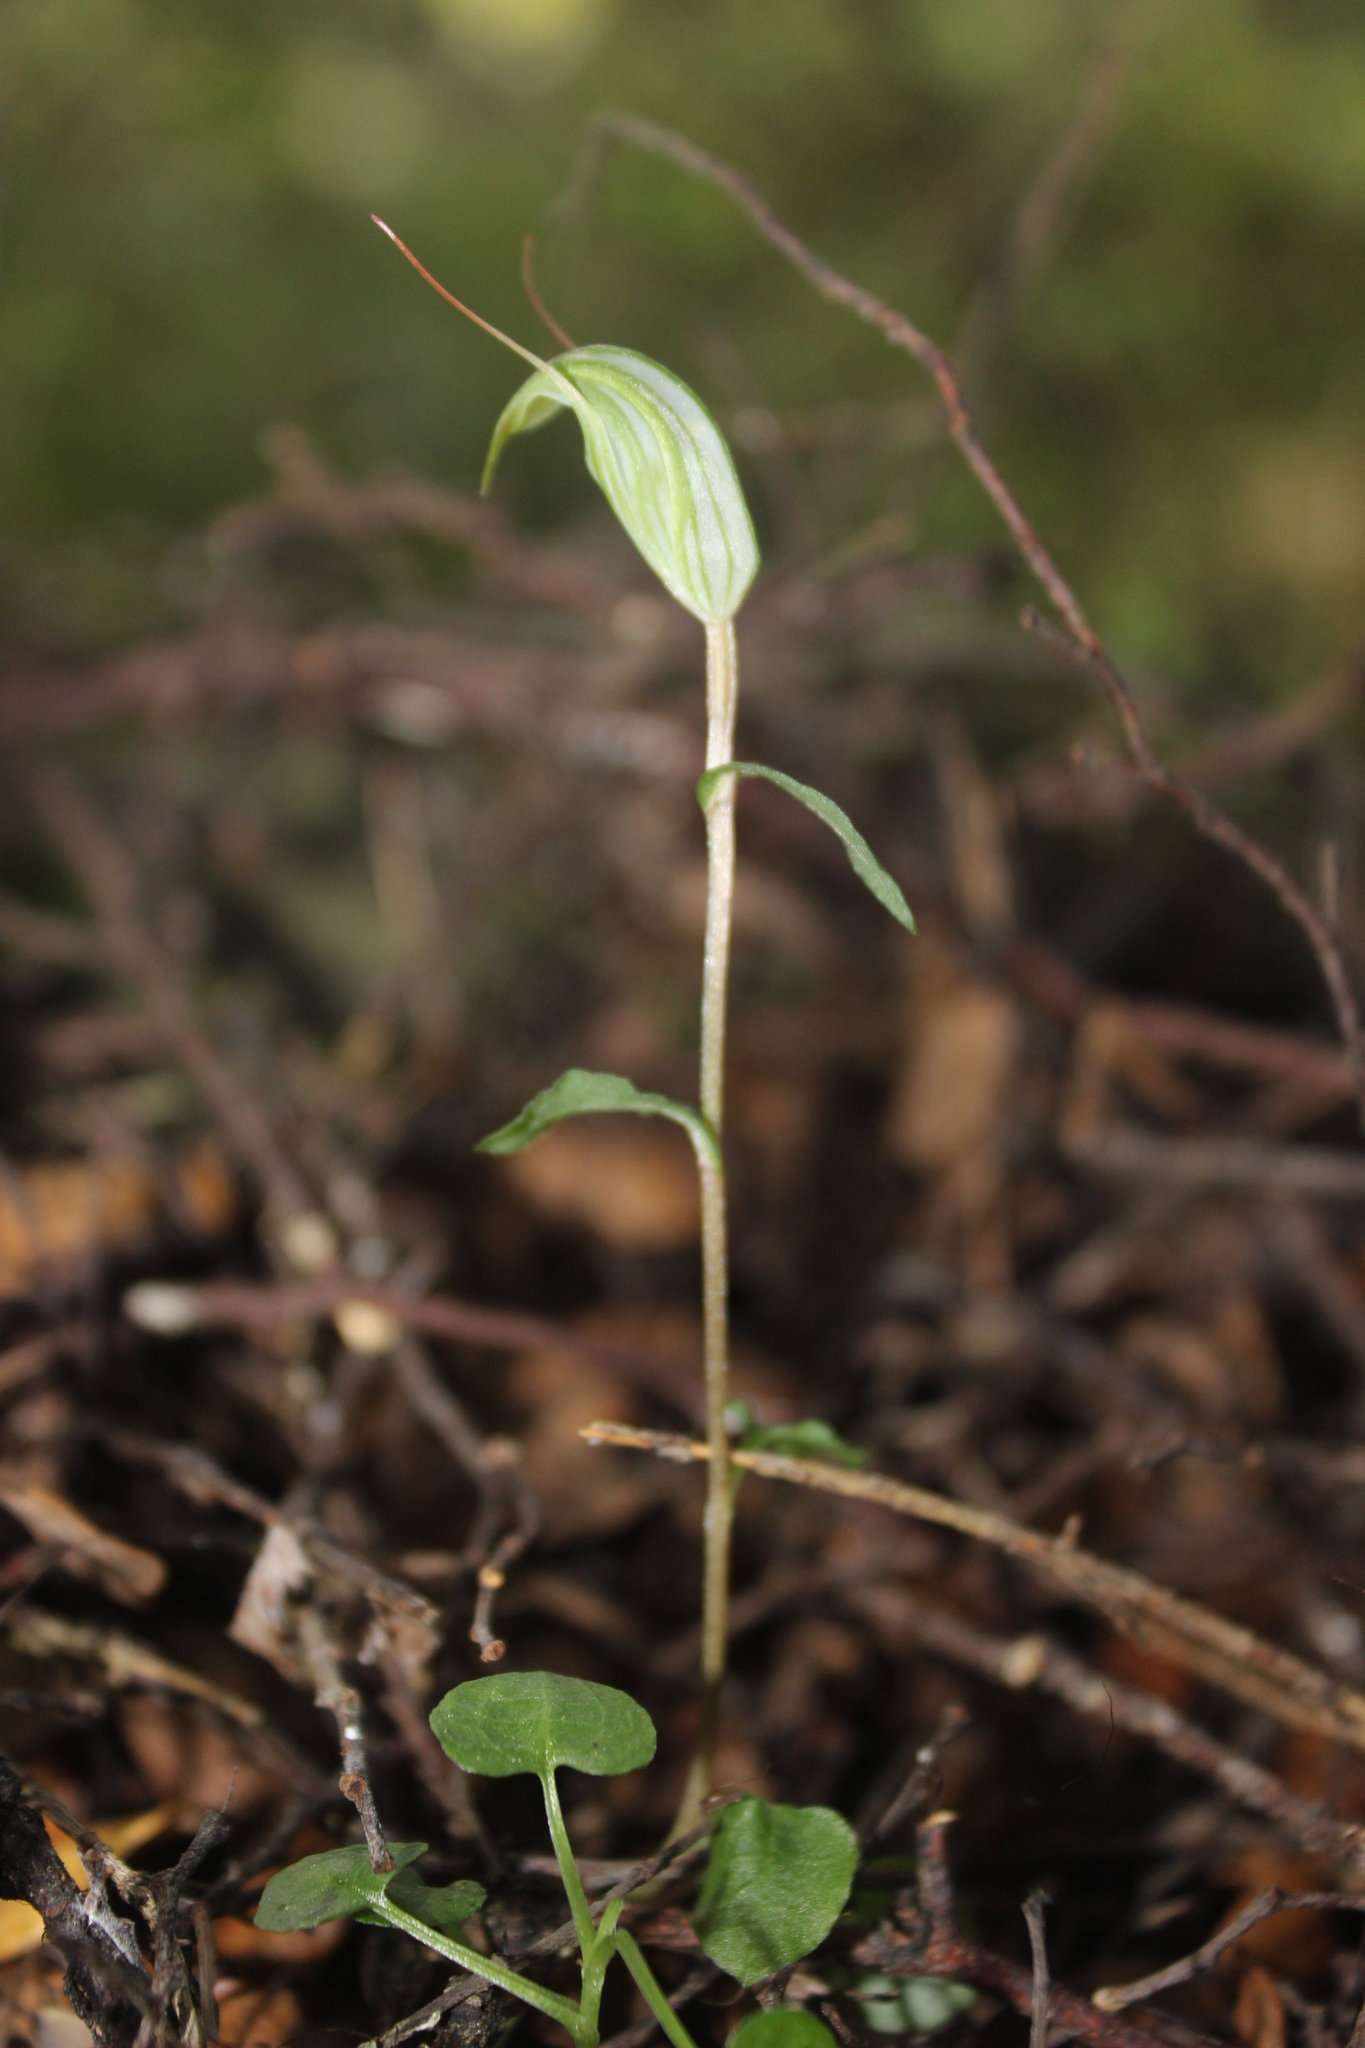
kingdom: Plantae
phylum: Tracheophyta
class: Liliopsida
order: Asparagales
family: Orchidaceae
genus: Pterostylis
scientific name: Pterostylis alobula
